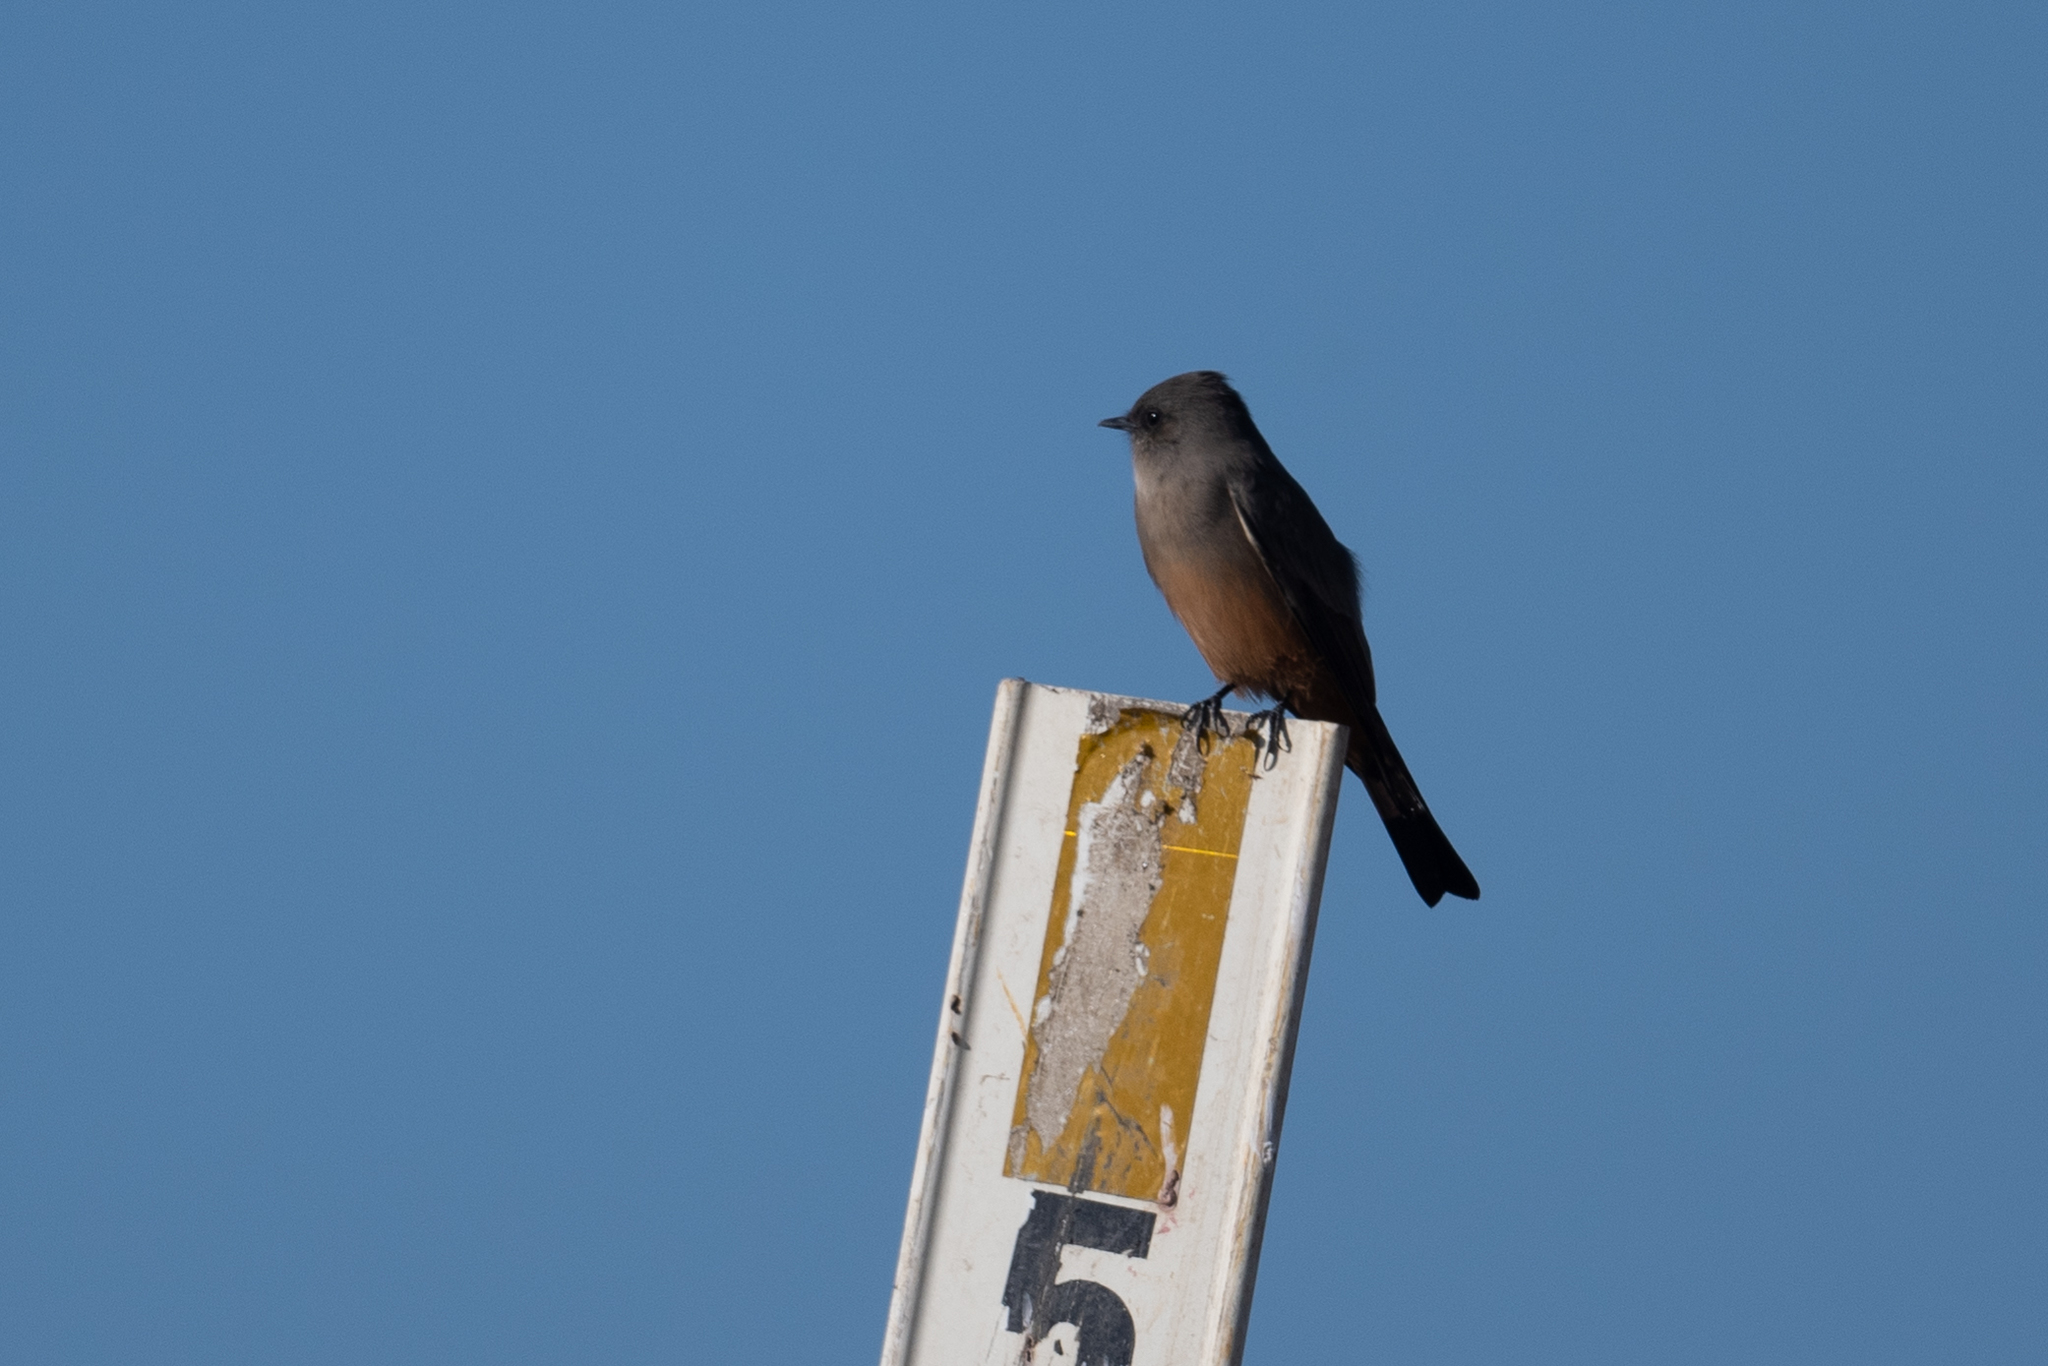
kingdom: Animalia
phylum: Chordata
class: Aves
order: Passeriformes
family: Tyrannidae
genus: Sayornis
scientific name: Sayornis saya
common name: Say's phoebe
